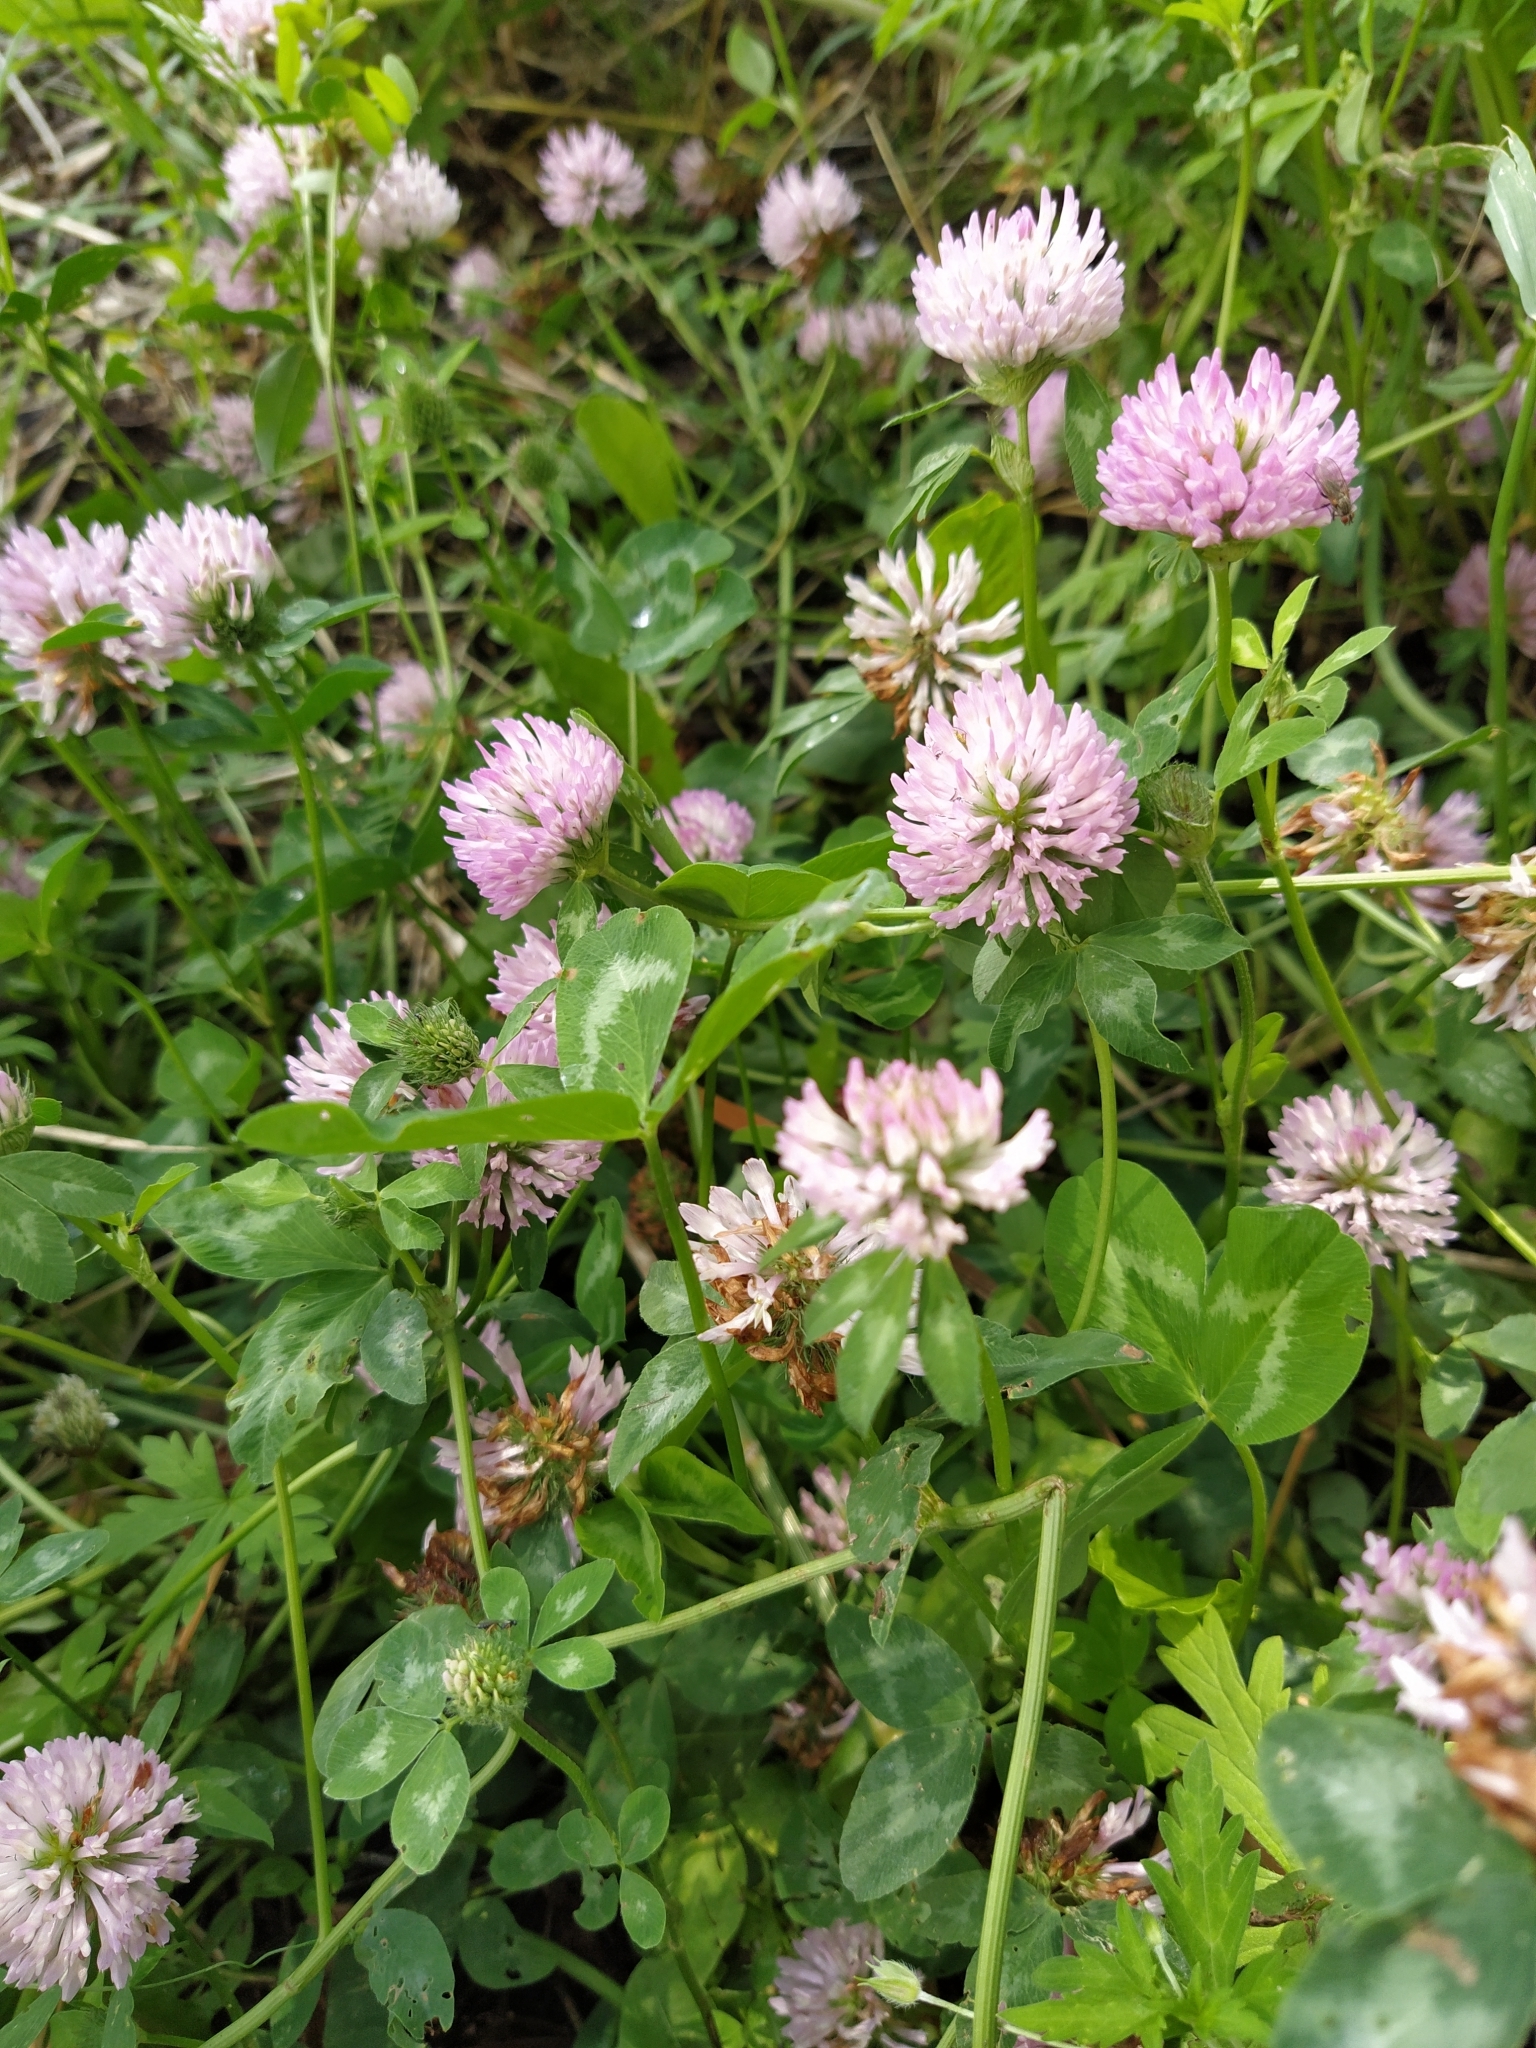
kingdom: Plantae
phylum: Tracheophyta
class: Magnoliopsida
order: Fabales
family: Fabaceae
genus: Trifolium
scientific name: Trifolium pratense
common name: Red clover
